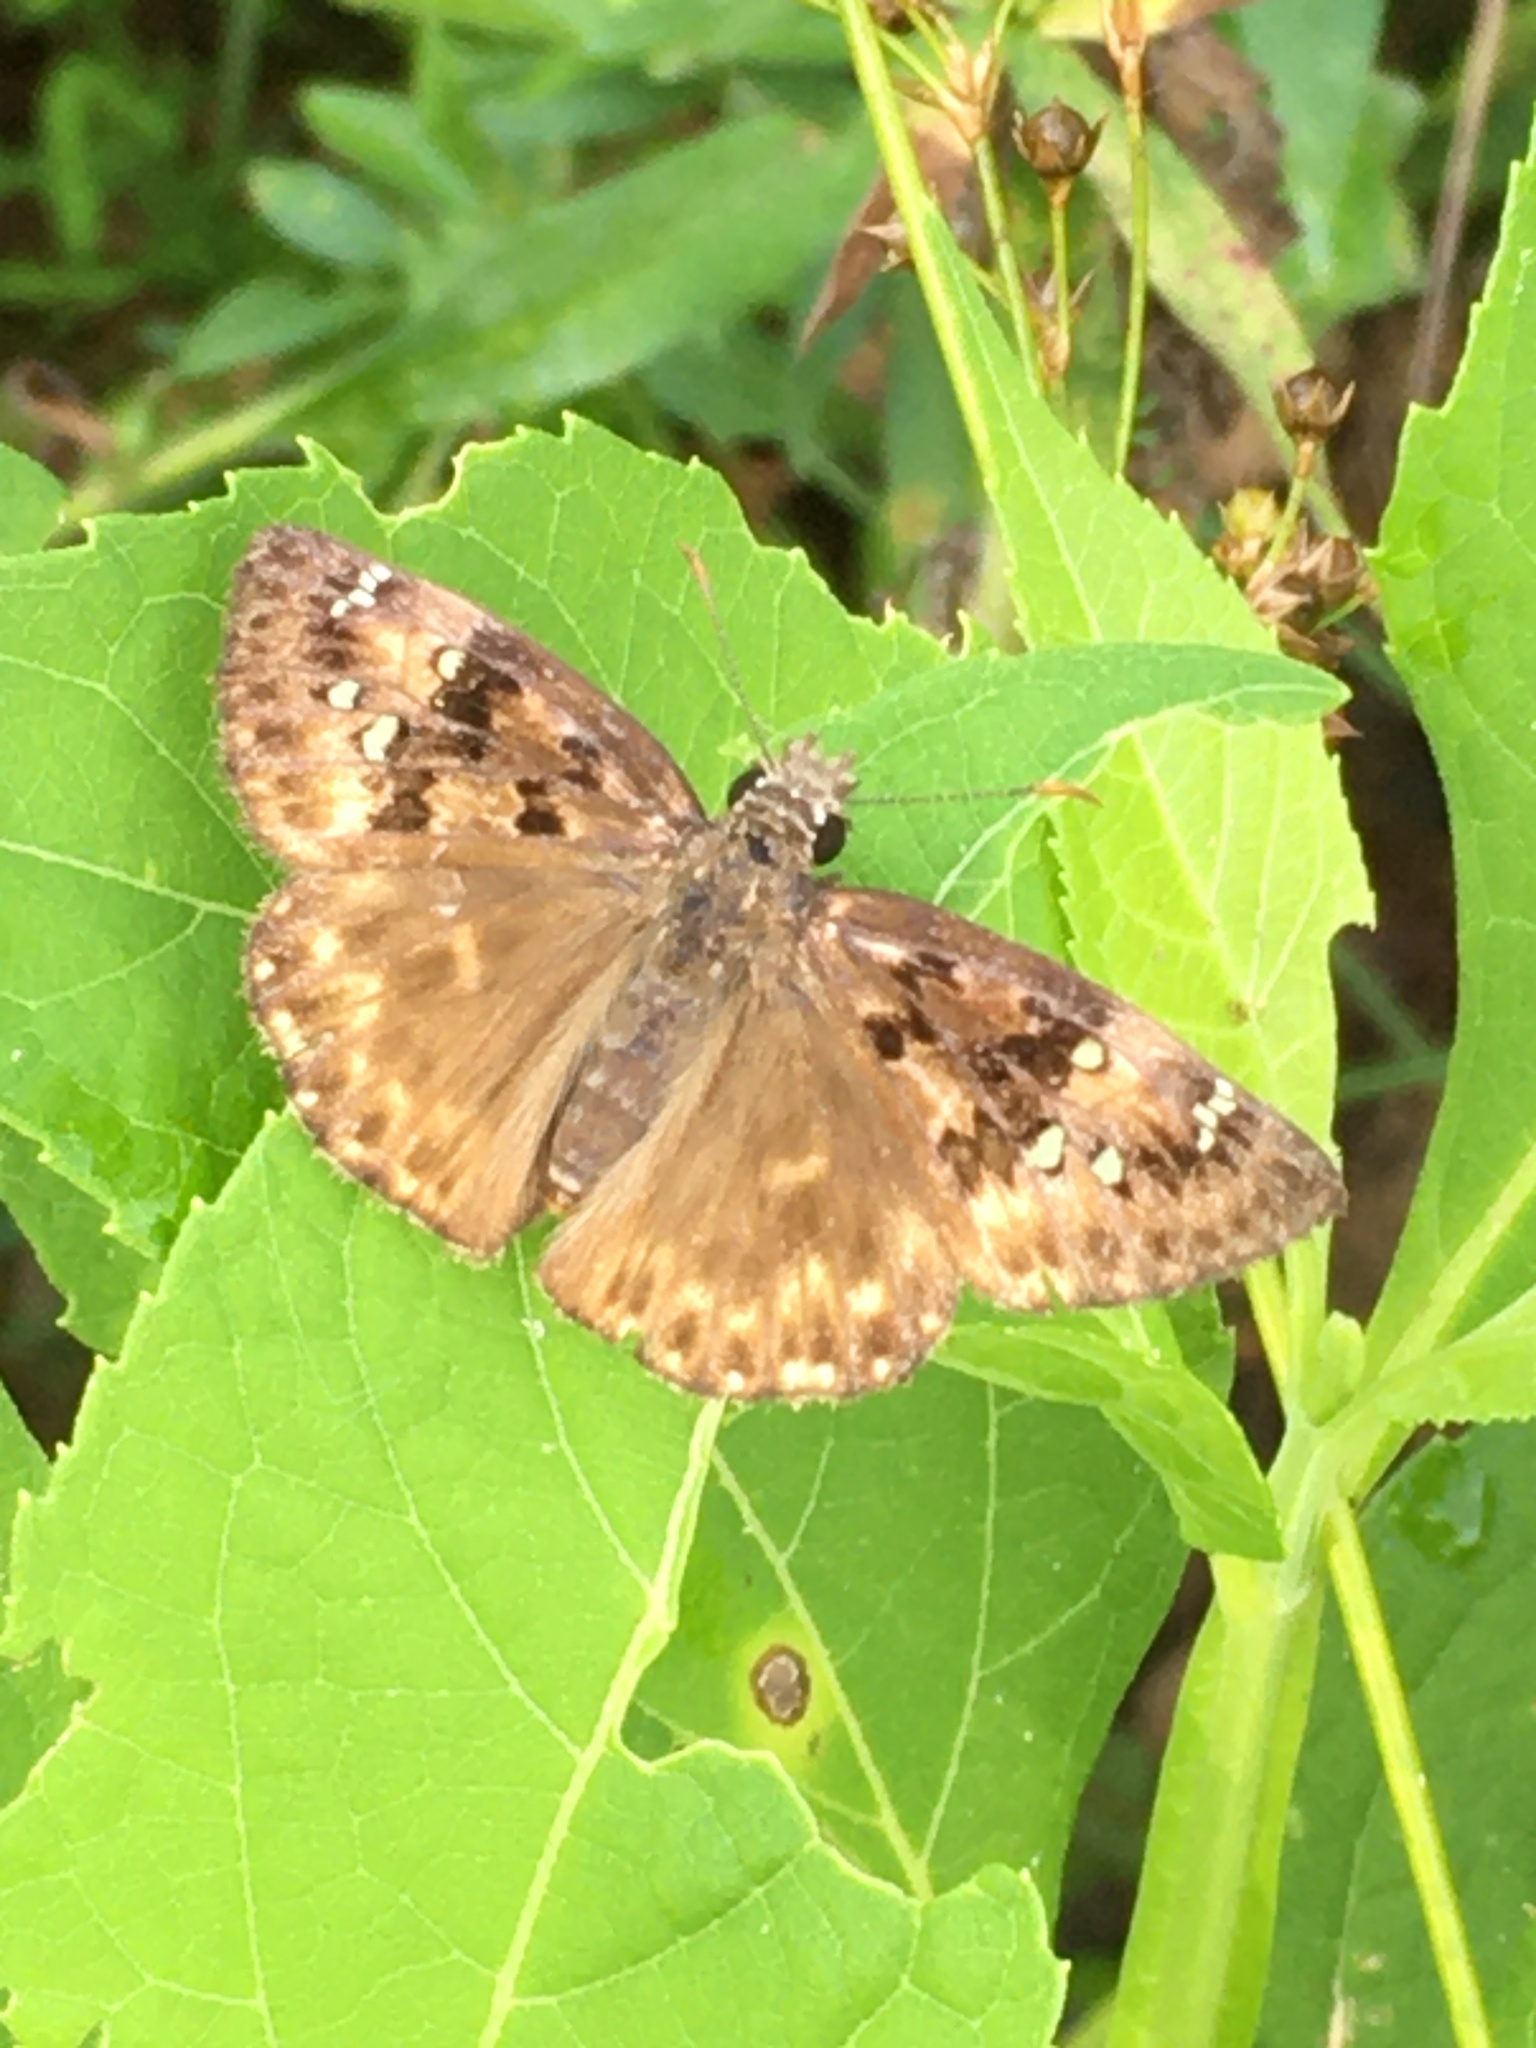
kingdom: Animalia
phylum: Arthropoda
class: Insecta
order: Lepidoptera
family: Hesperiidae
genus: Erynnis
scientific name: Erynnis horatius
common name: Horace's duskywing
